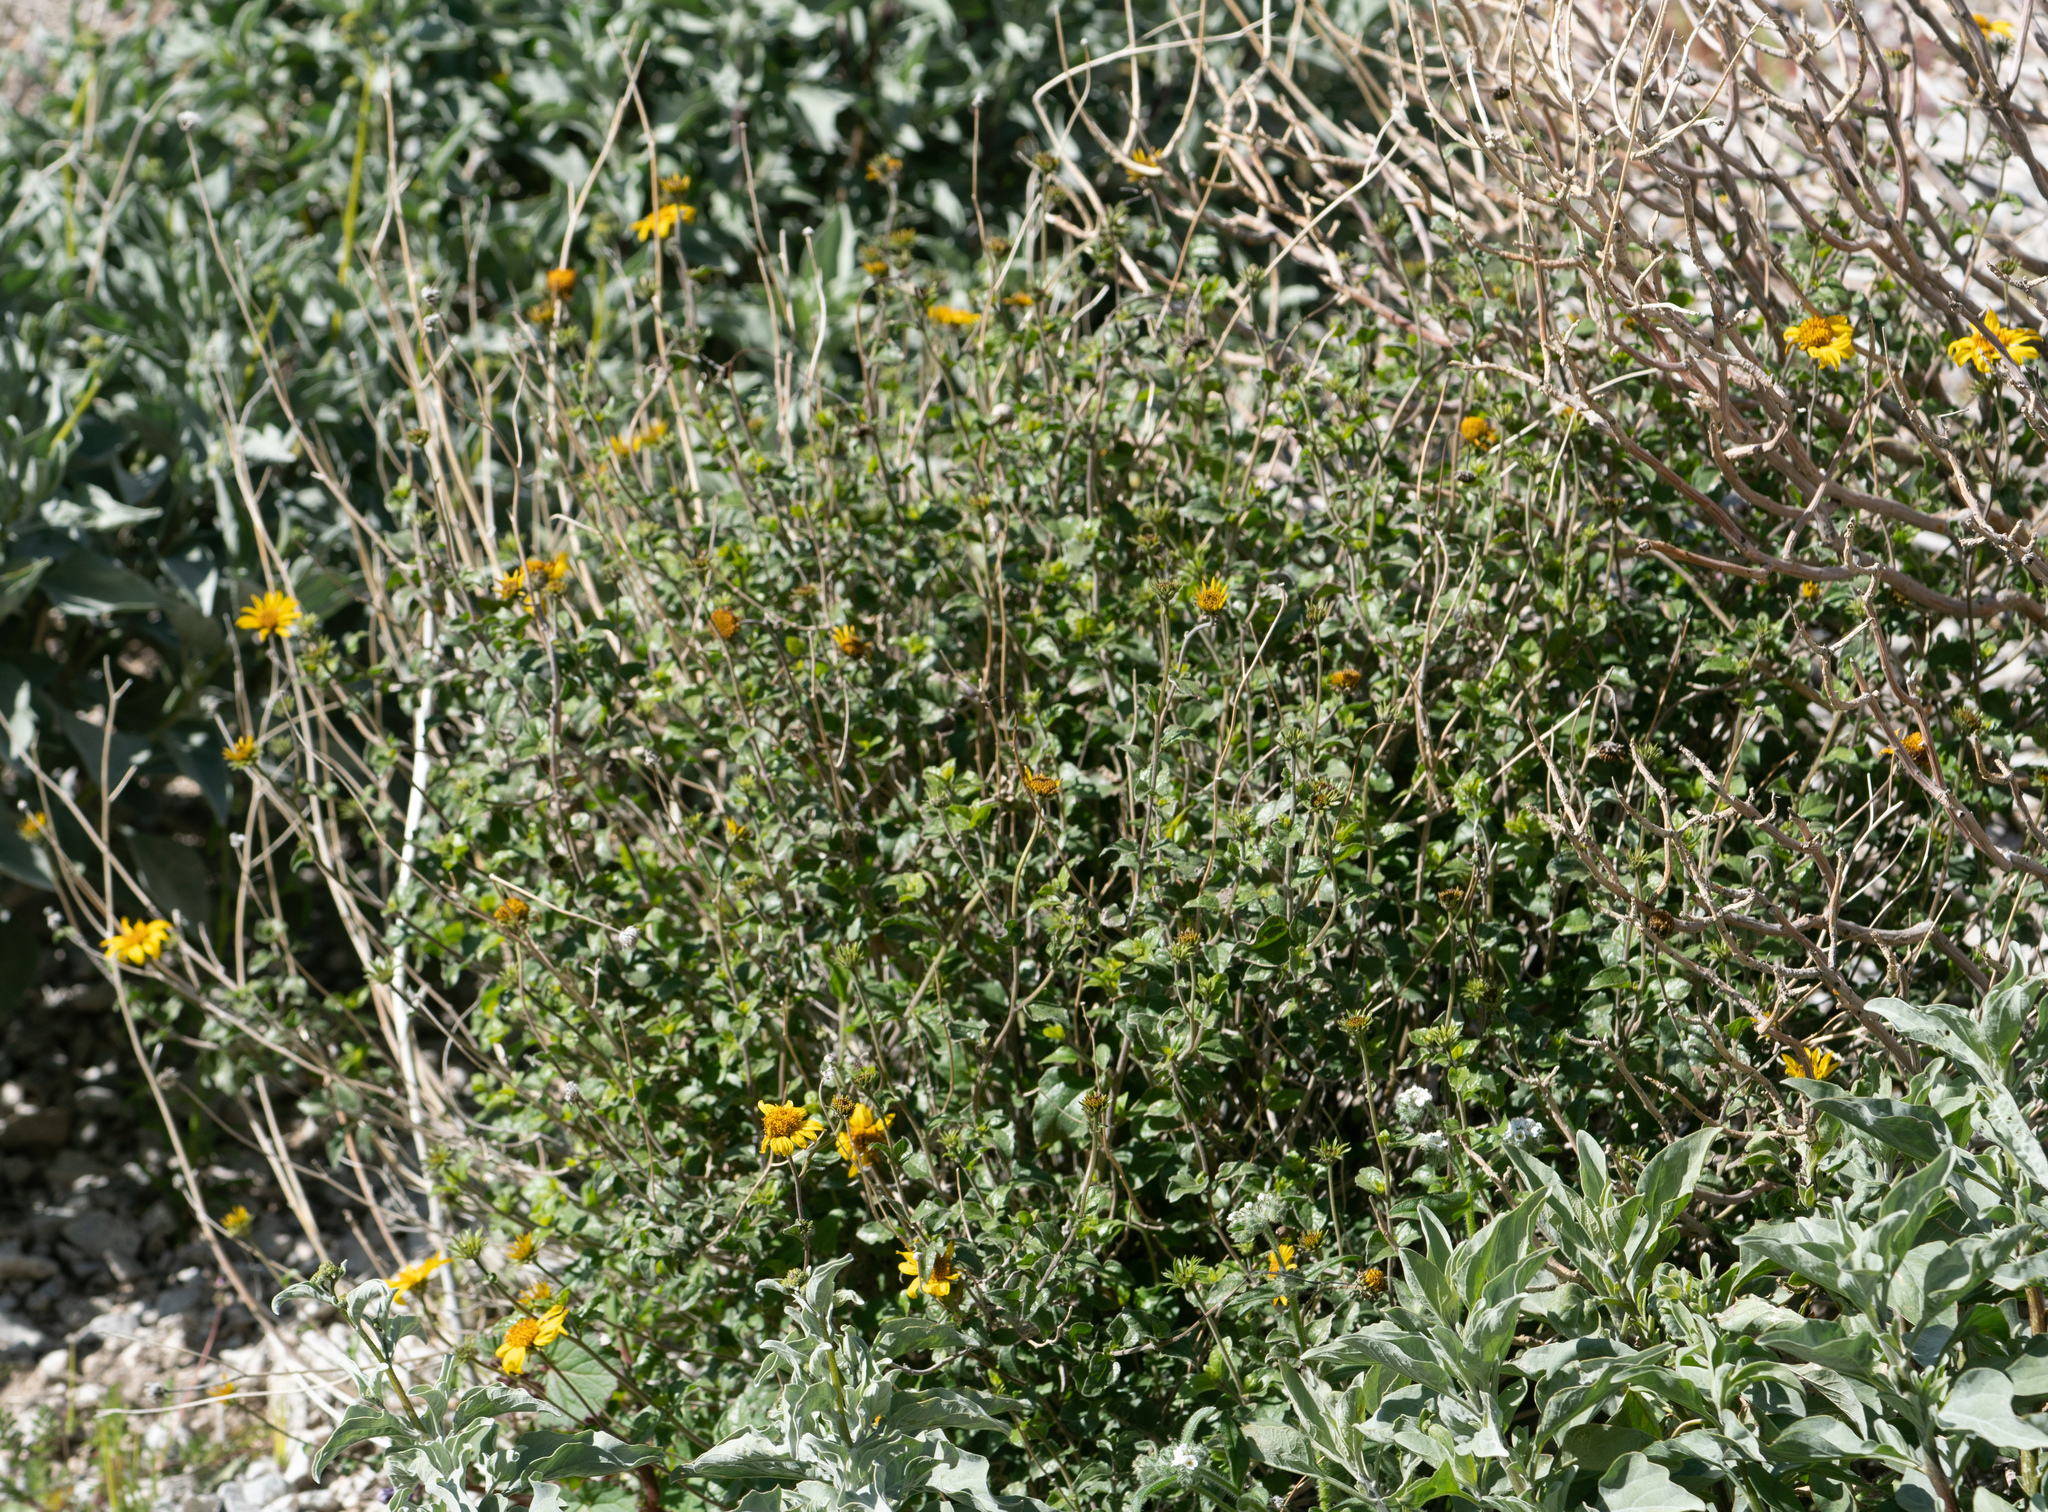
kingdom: Plantae
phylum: Tracheophyta
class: Magnoliopsida
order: Asterales
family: Asteraceae
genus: Bahiopsis
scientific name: Bahiopsis parishii
